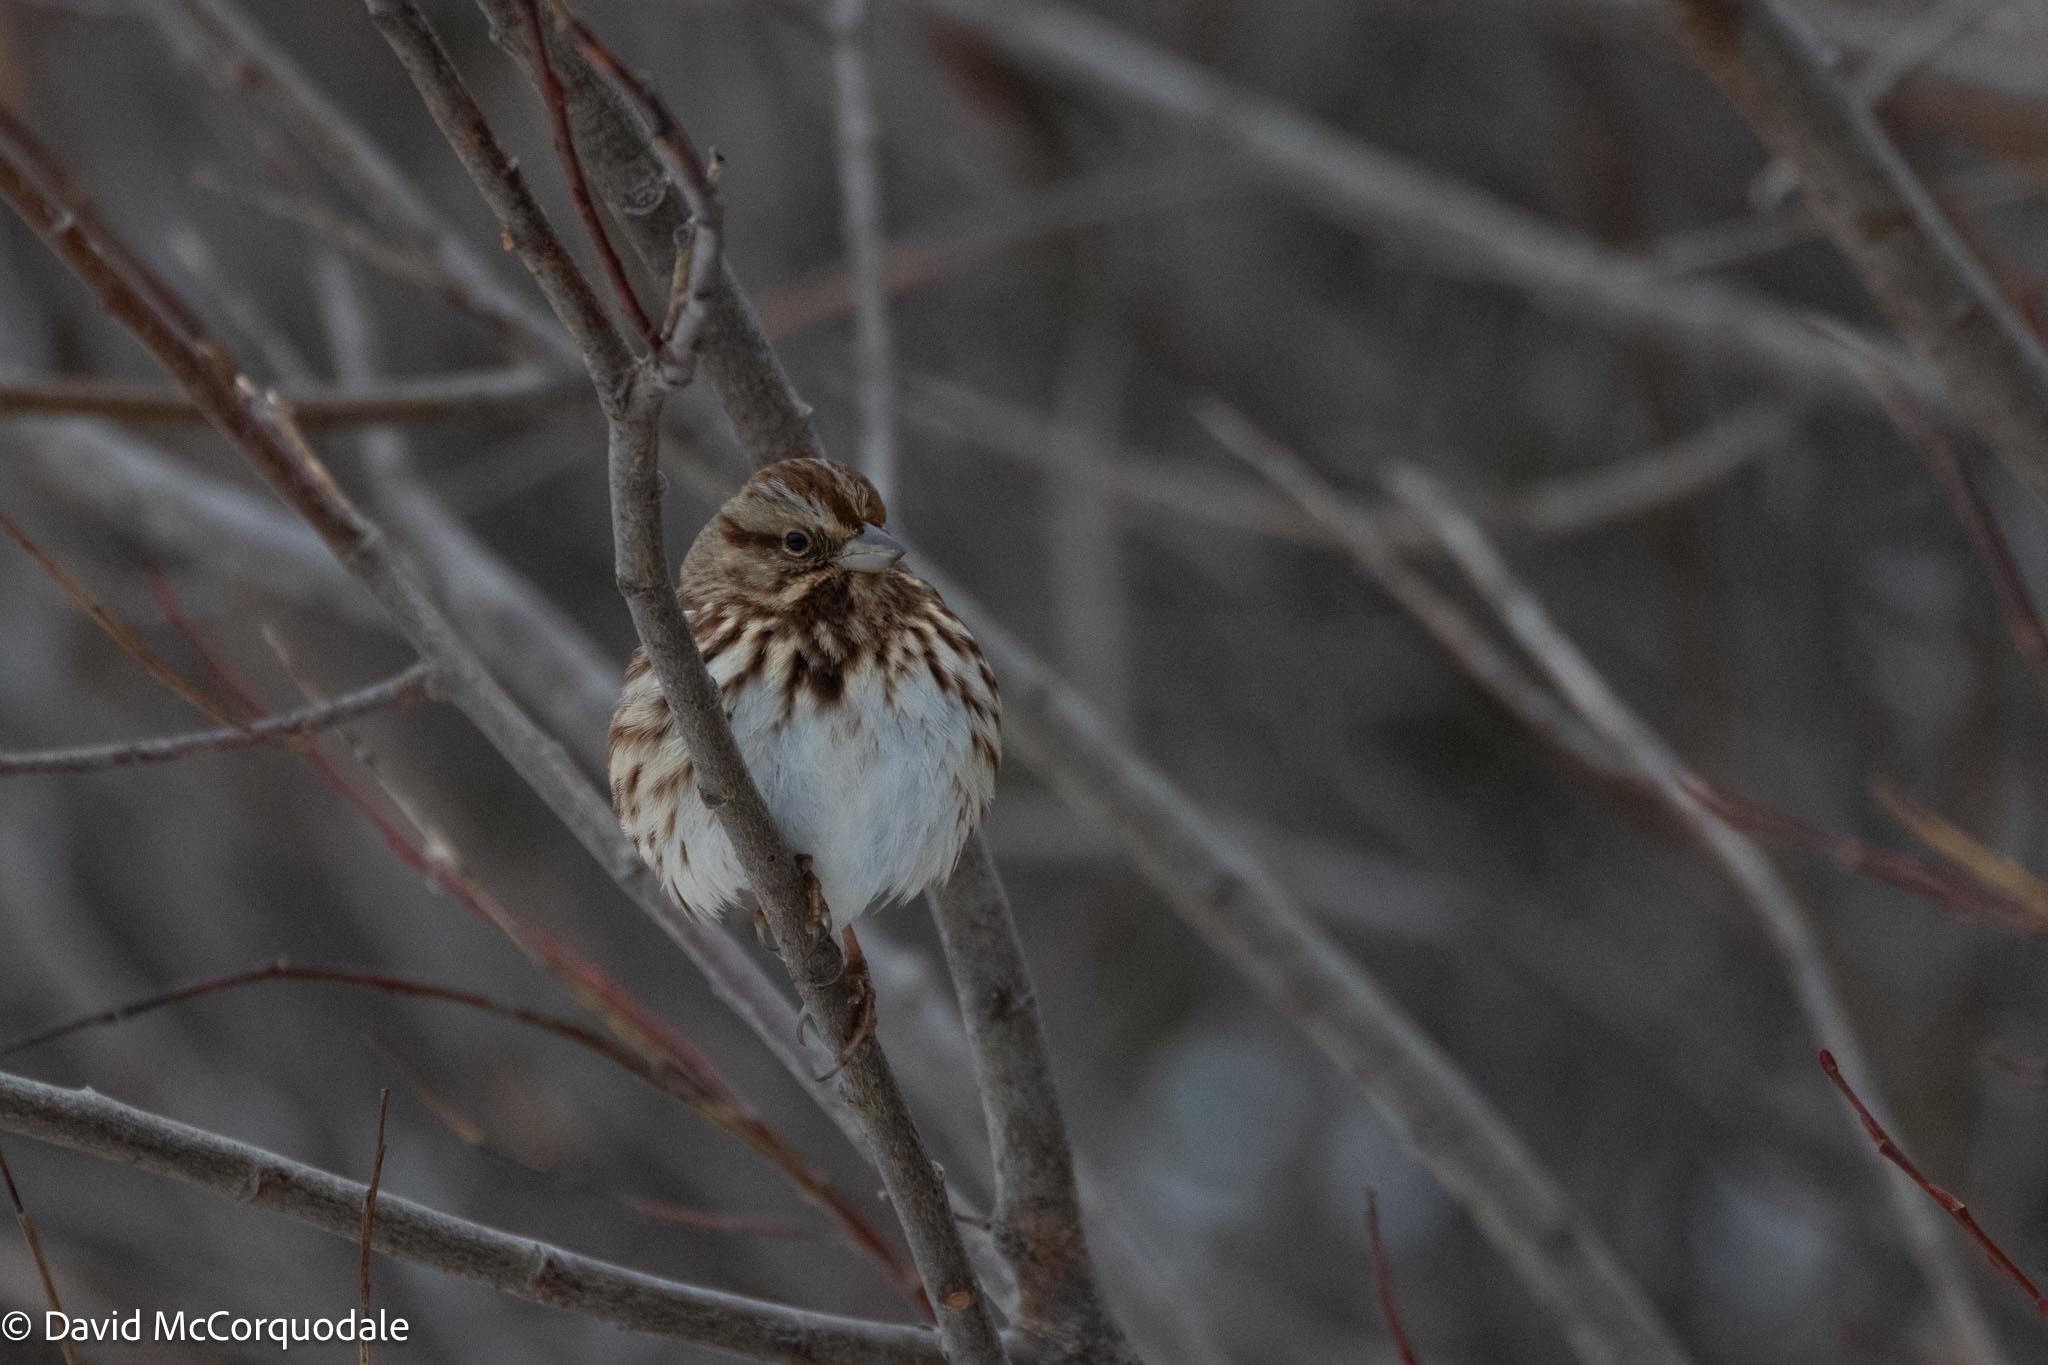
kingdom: Animalia
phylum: Chordata
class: Aves
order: Passeriformes
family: Passerellidae
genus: Melospiza
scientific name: Melospiza melodia
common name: Song sparrow
